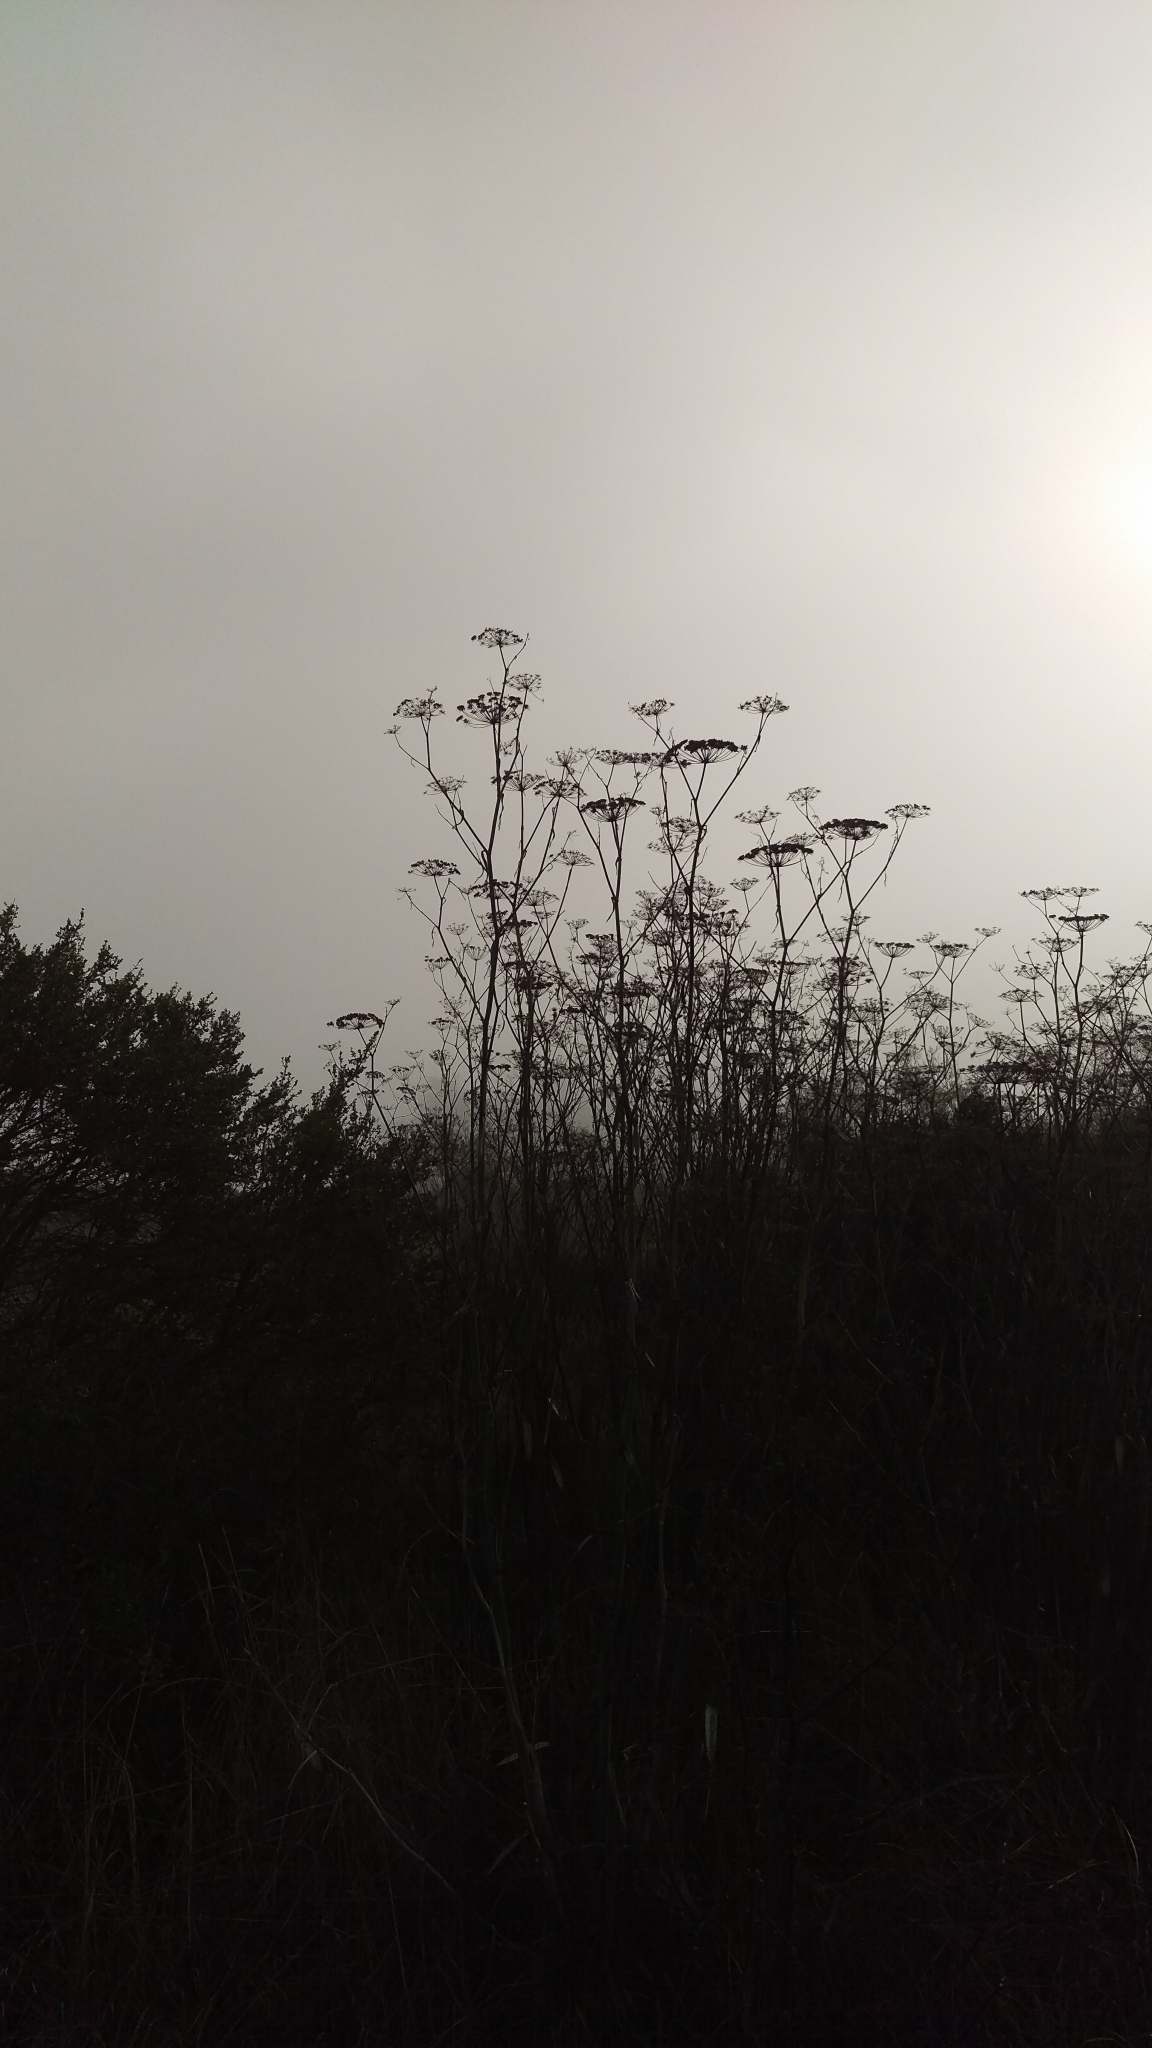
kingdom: Plantae
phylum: Tracheophyta
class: Magnoliopsida
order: Apiales
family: Apiaceae
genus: Foeniculum
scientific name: Foeniculum vulgare
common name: Fennel
